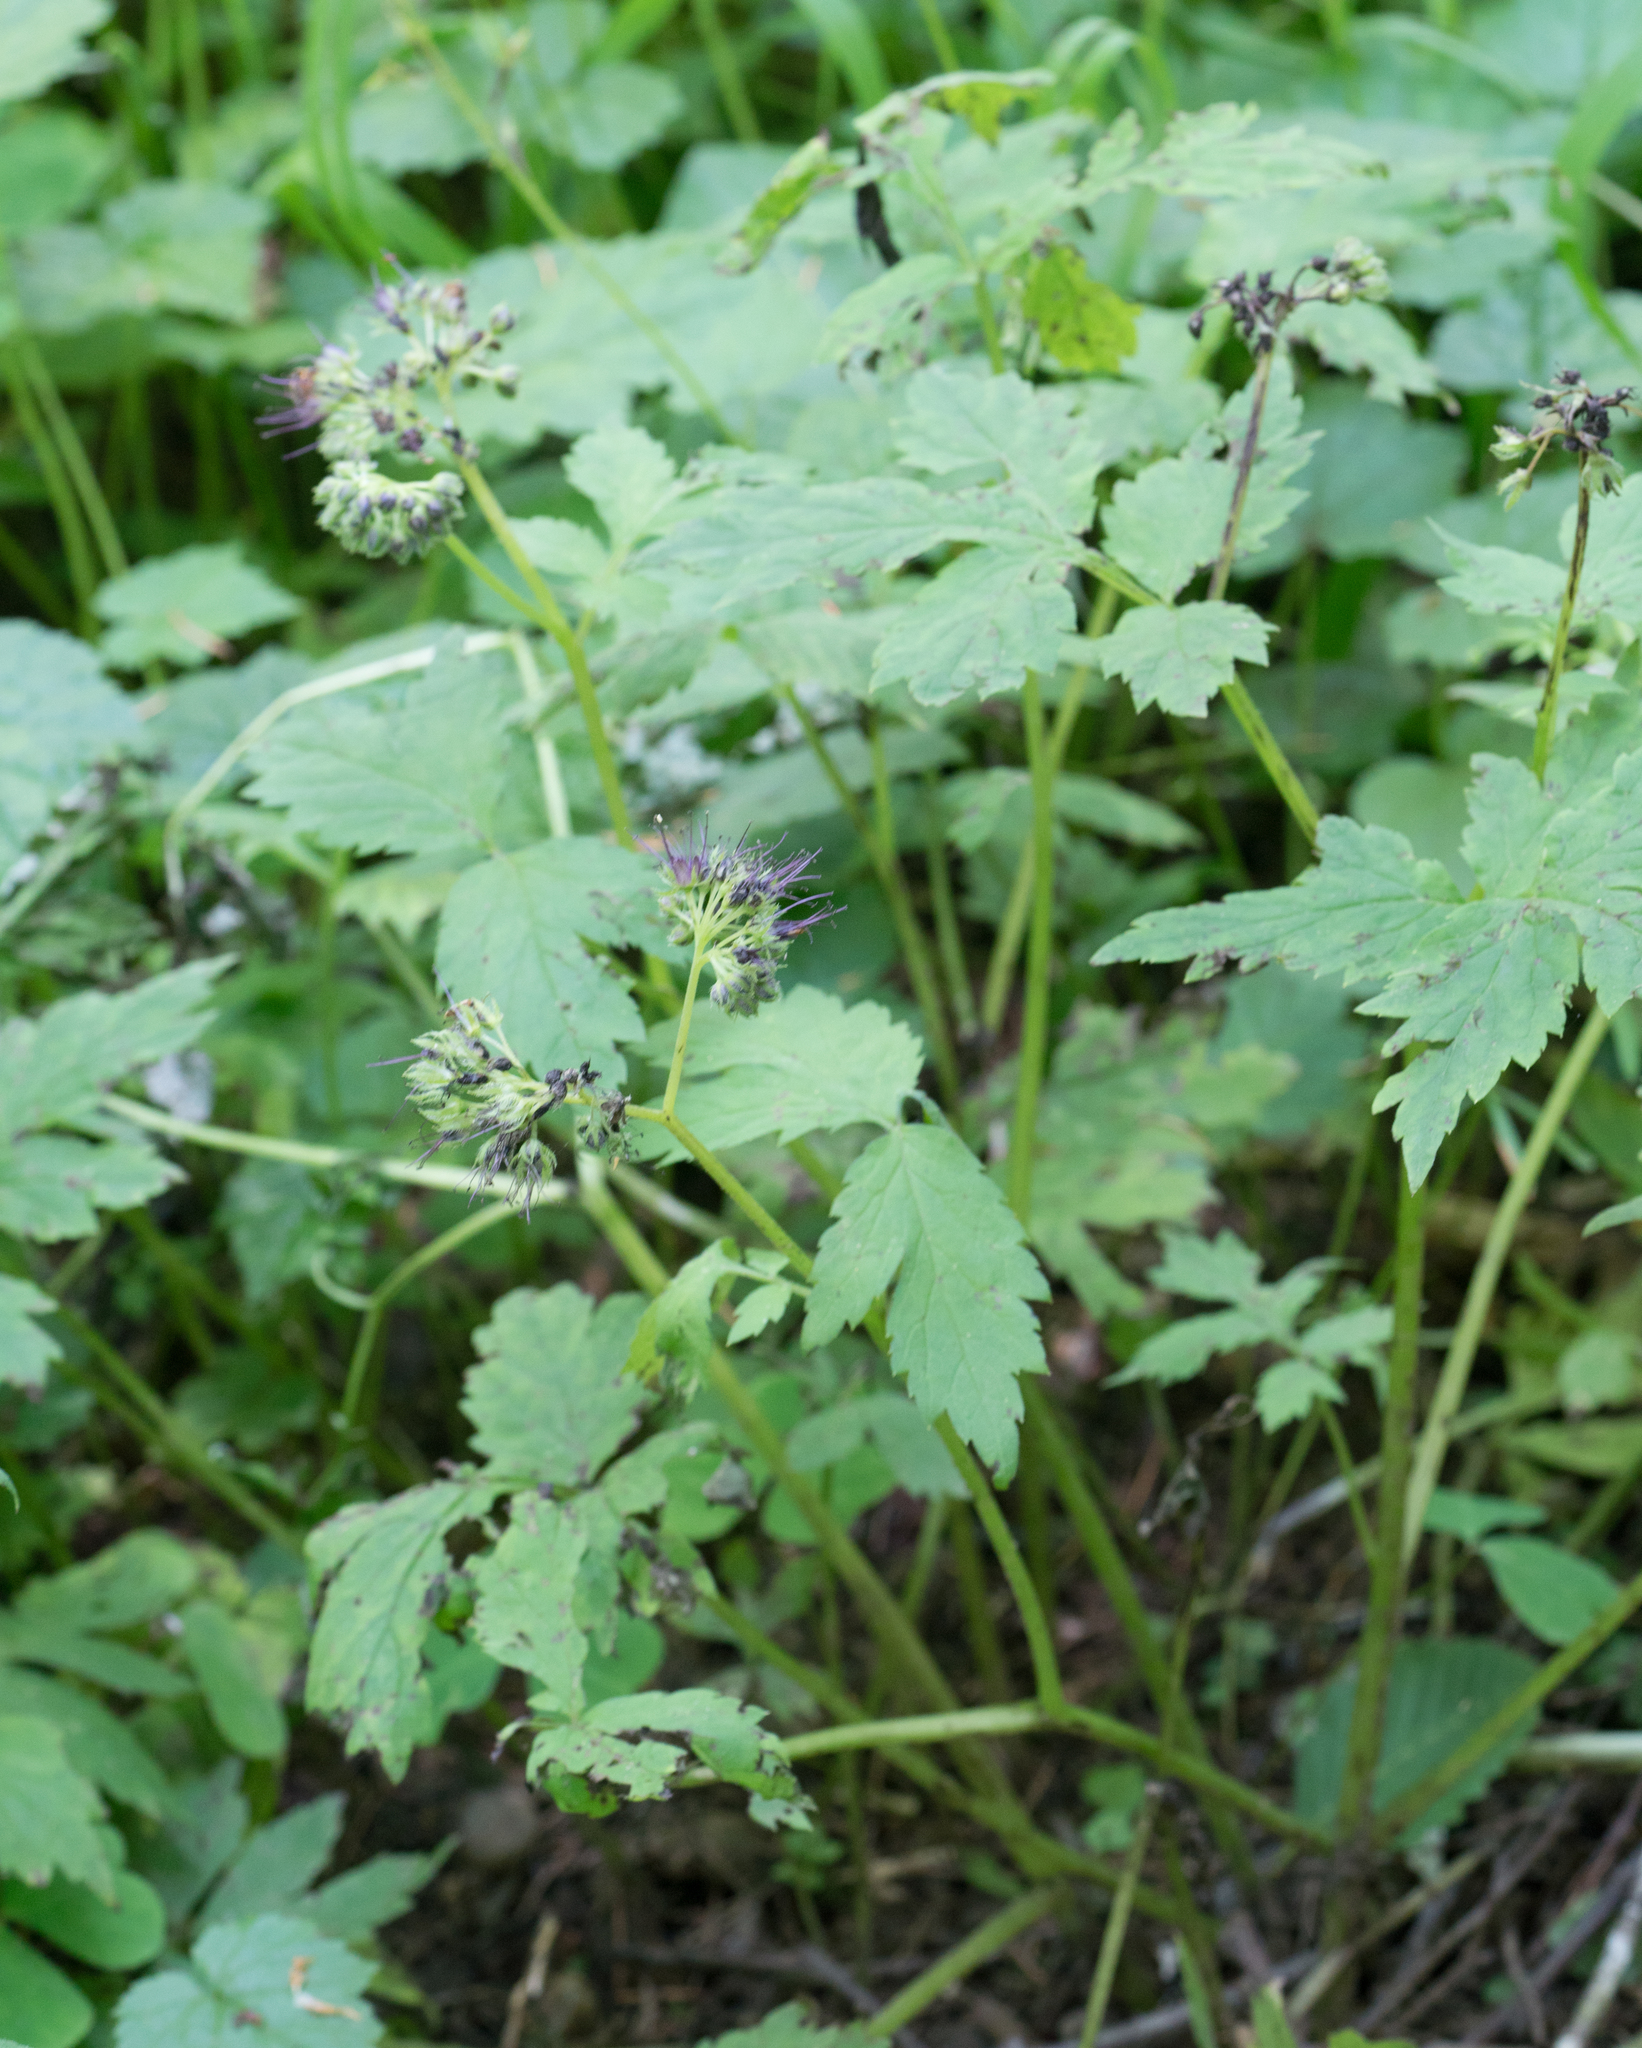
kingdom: Plantae
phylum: Tracheophyta
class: Magnoliopsida
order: Boraginales
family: Hydrophyllaceae
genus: Hydrophyllum
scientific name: Hydrophyllum tenuipes
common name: Pacific waterleaf
